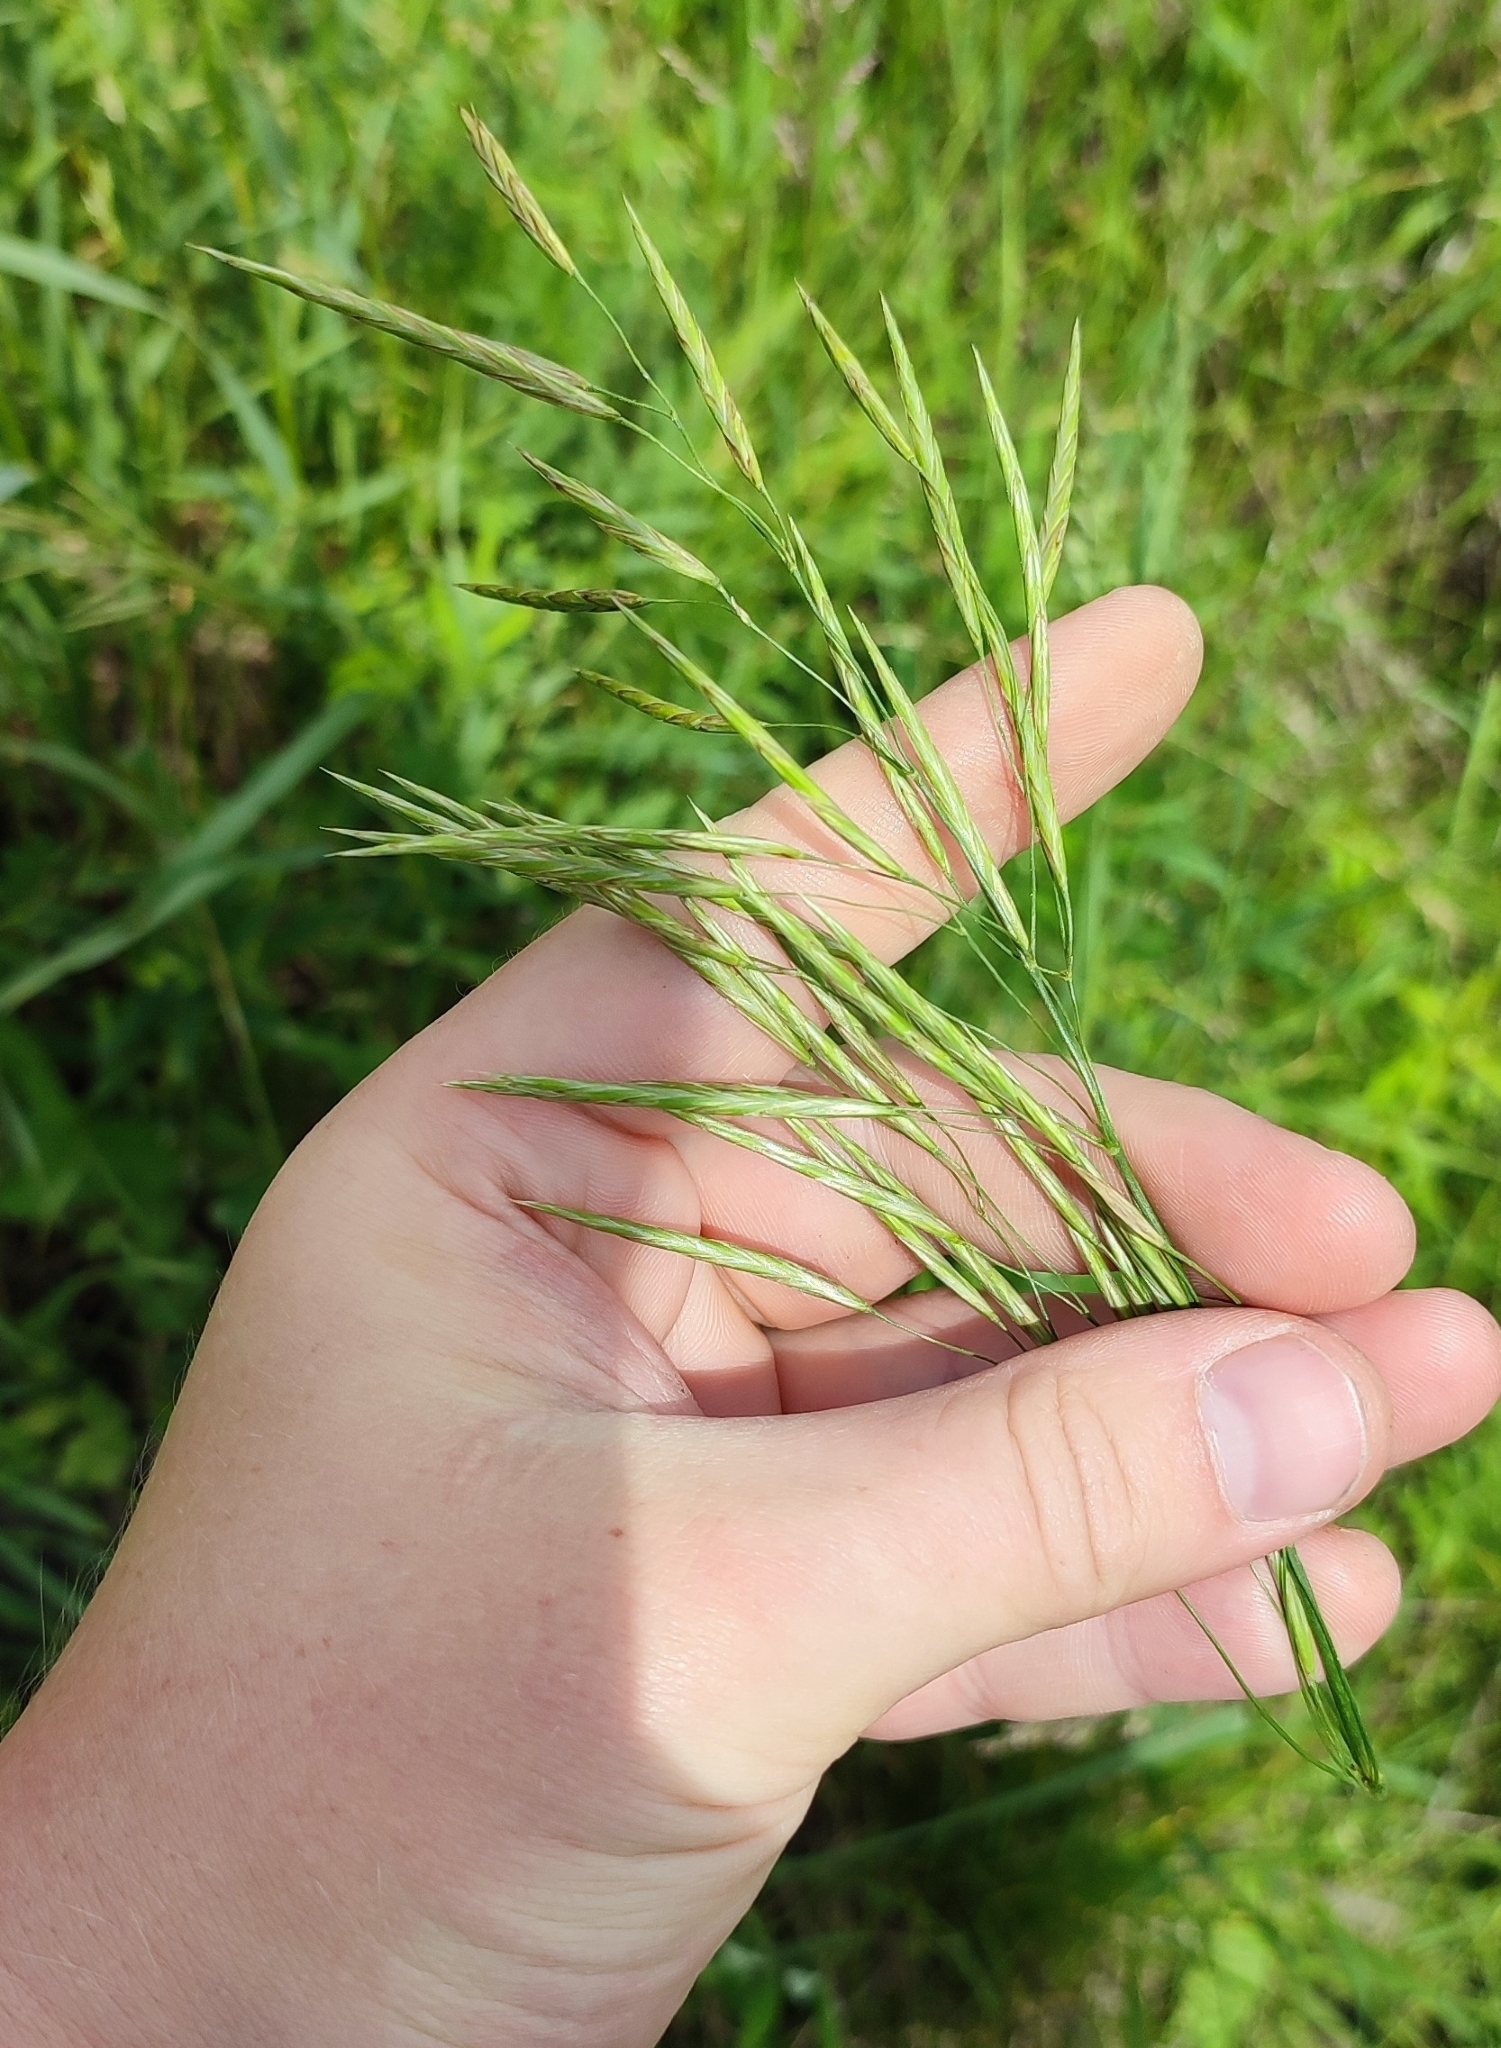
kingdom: Plantae
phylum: Tracheophyta
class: Liliopsida
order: Poales
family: Poaceae
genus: Bromus
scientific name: Bromus inermis
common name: Smooth brome
